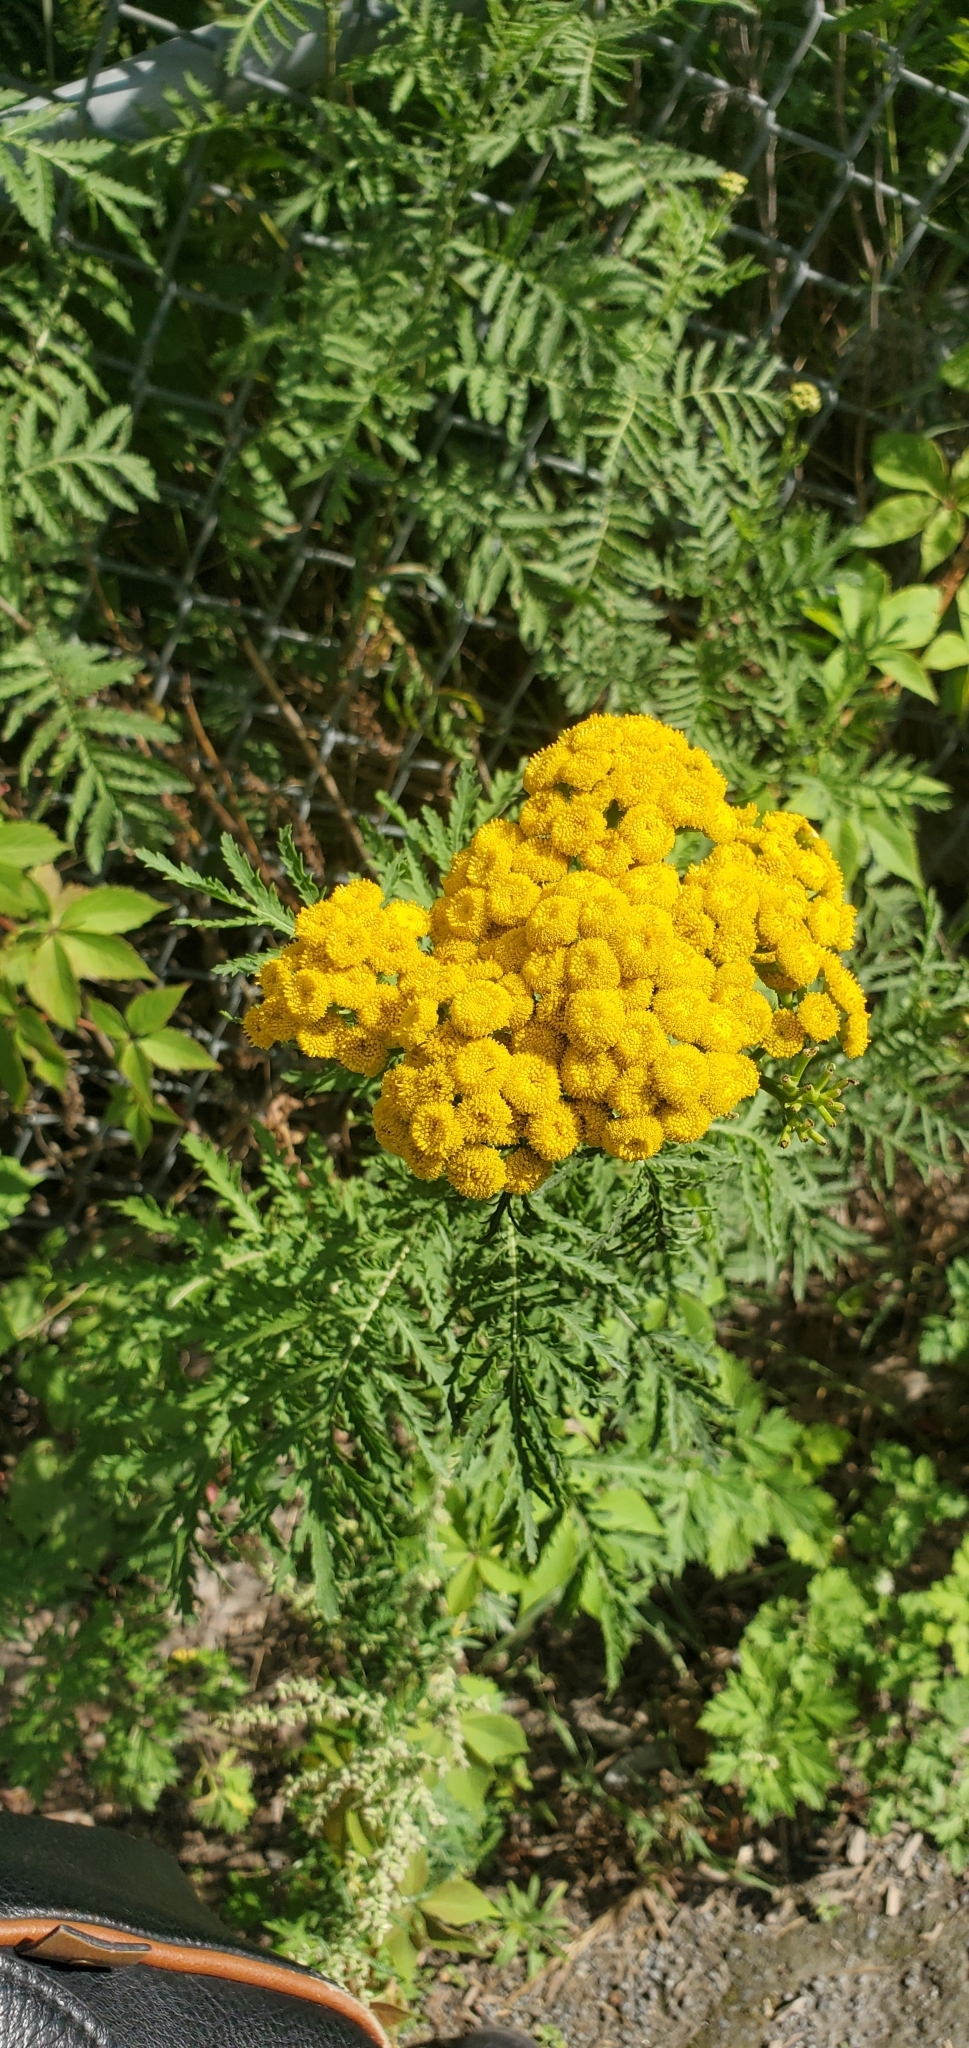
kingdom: Plantae
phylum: Tracheophyta
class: Magnoliopsida
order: Asterales
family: Asteraceae
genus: Tanacetum
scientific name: Tanacetum vulgare
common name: Common tansy
